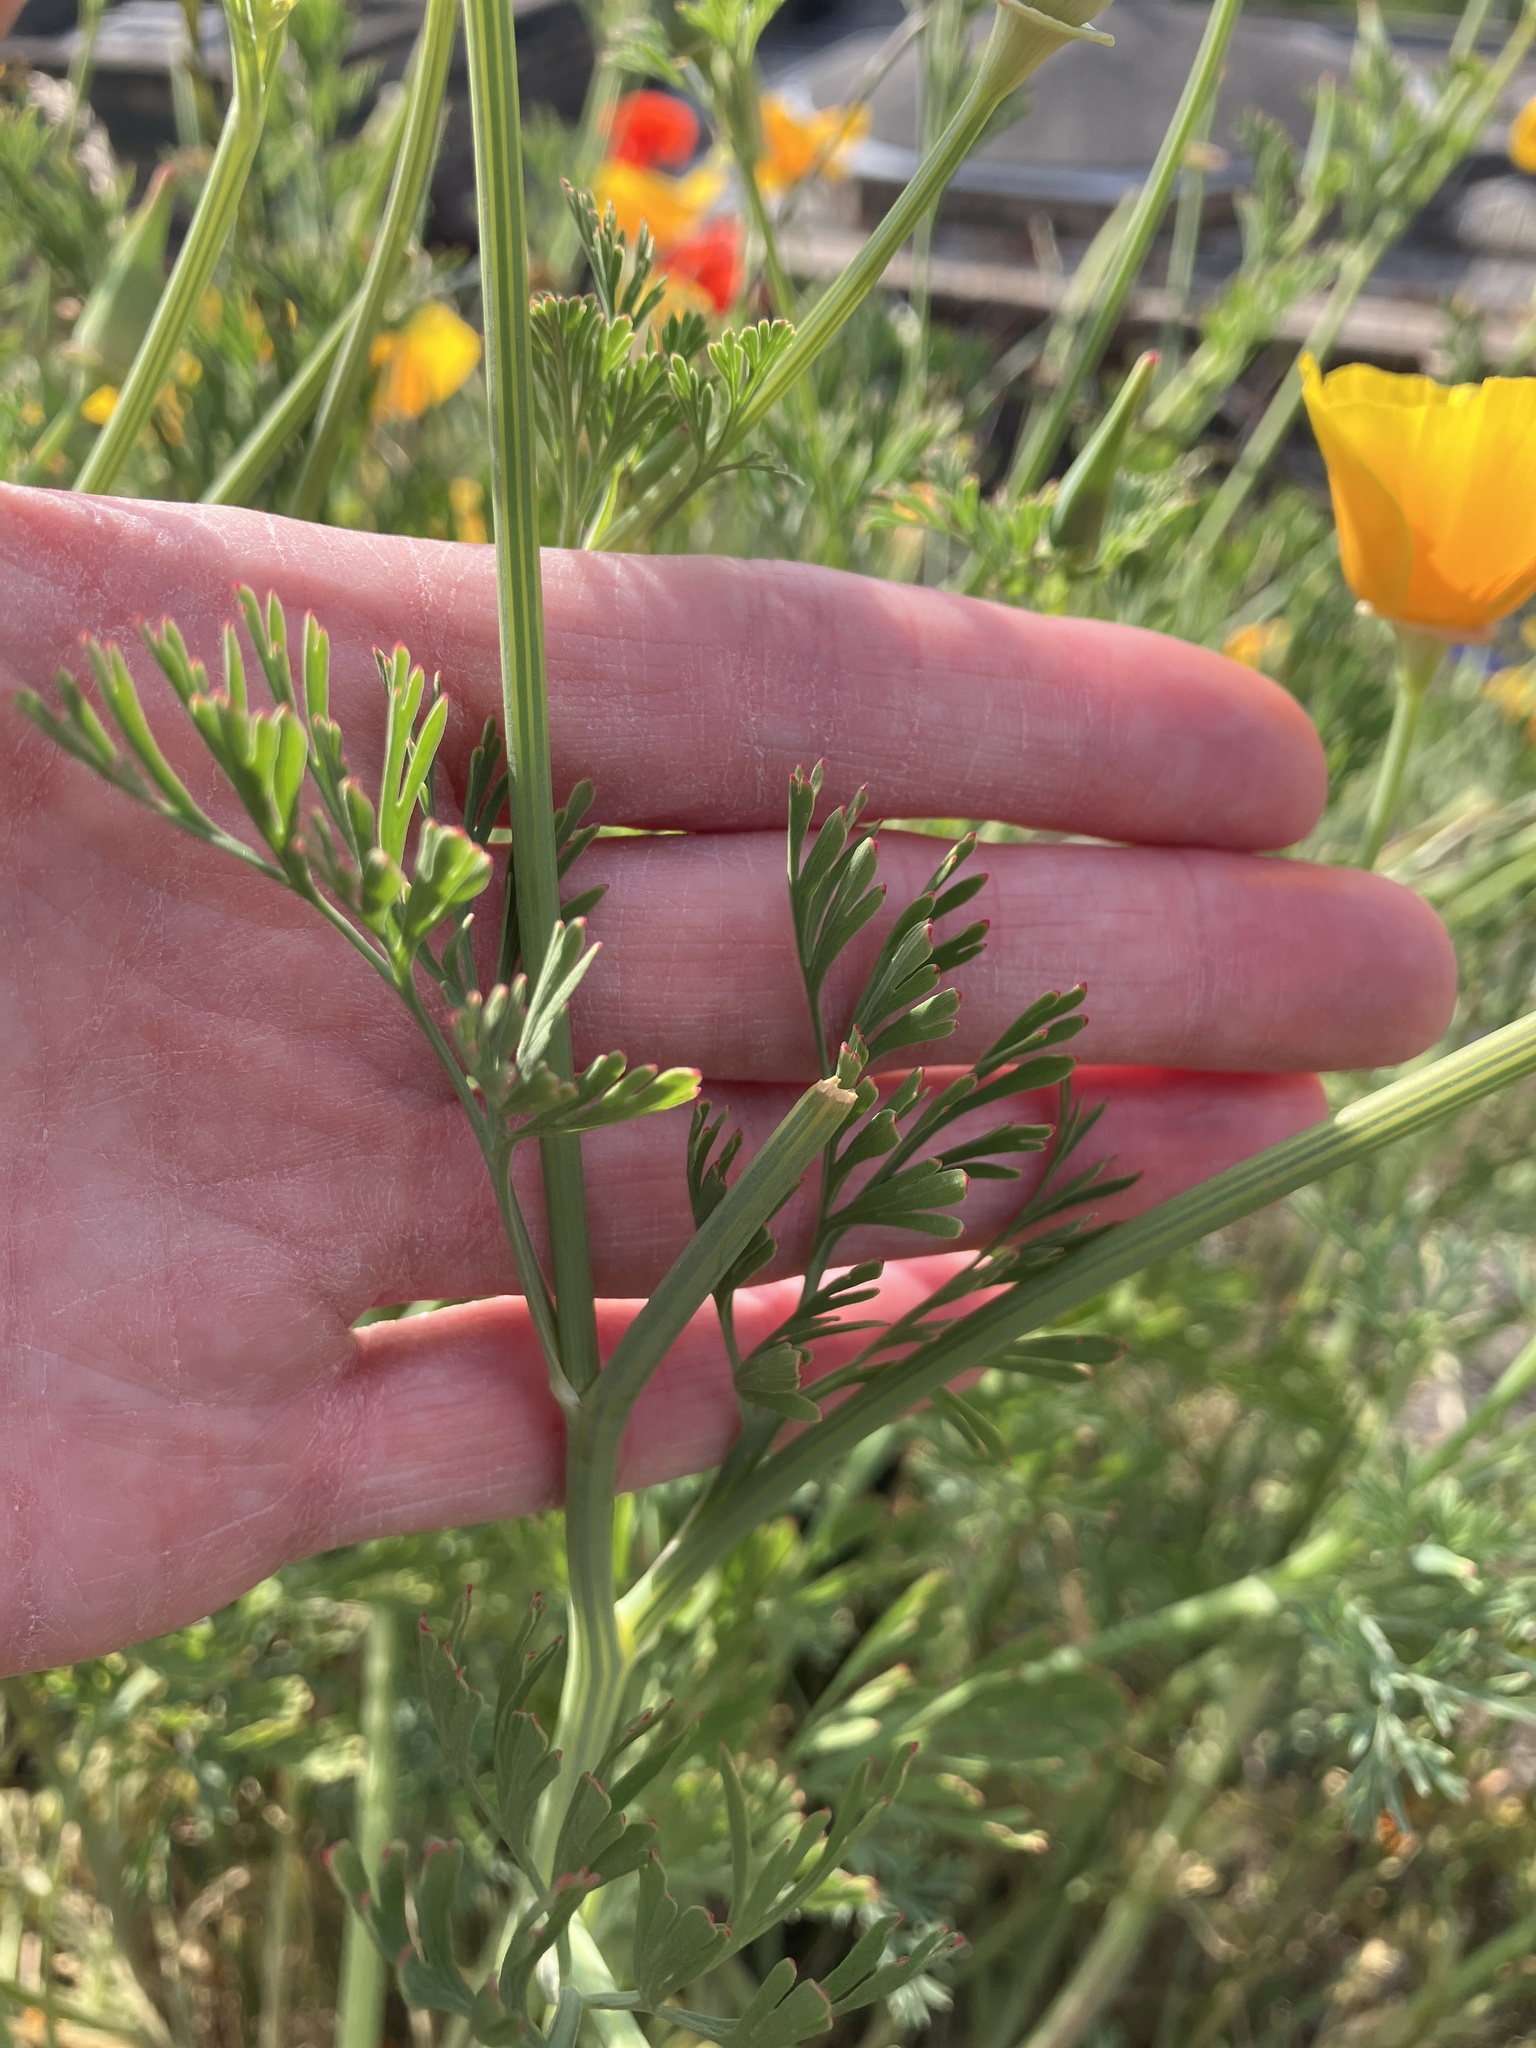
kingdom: Plantae
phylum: Tracheophyta
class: Magnoliopsida
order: Ranunculales
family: Papaveraceae
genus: Eschscholzia
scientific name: Eschscholzia californica
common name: California poppy
